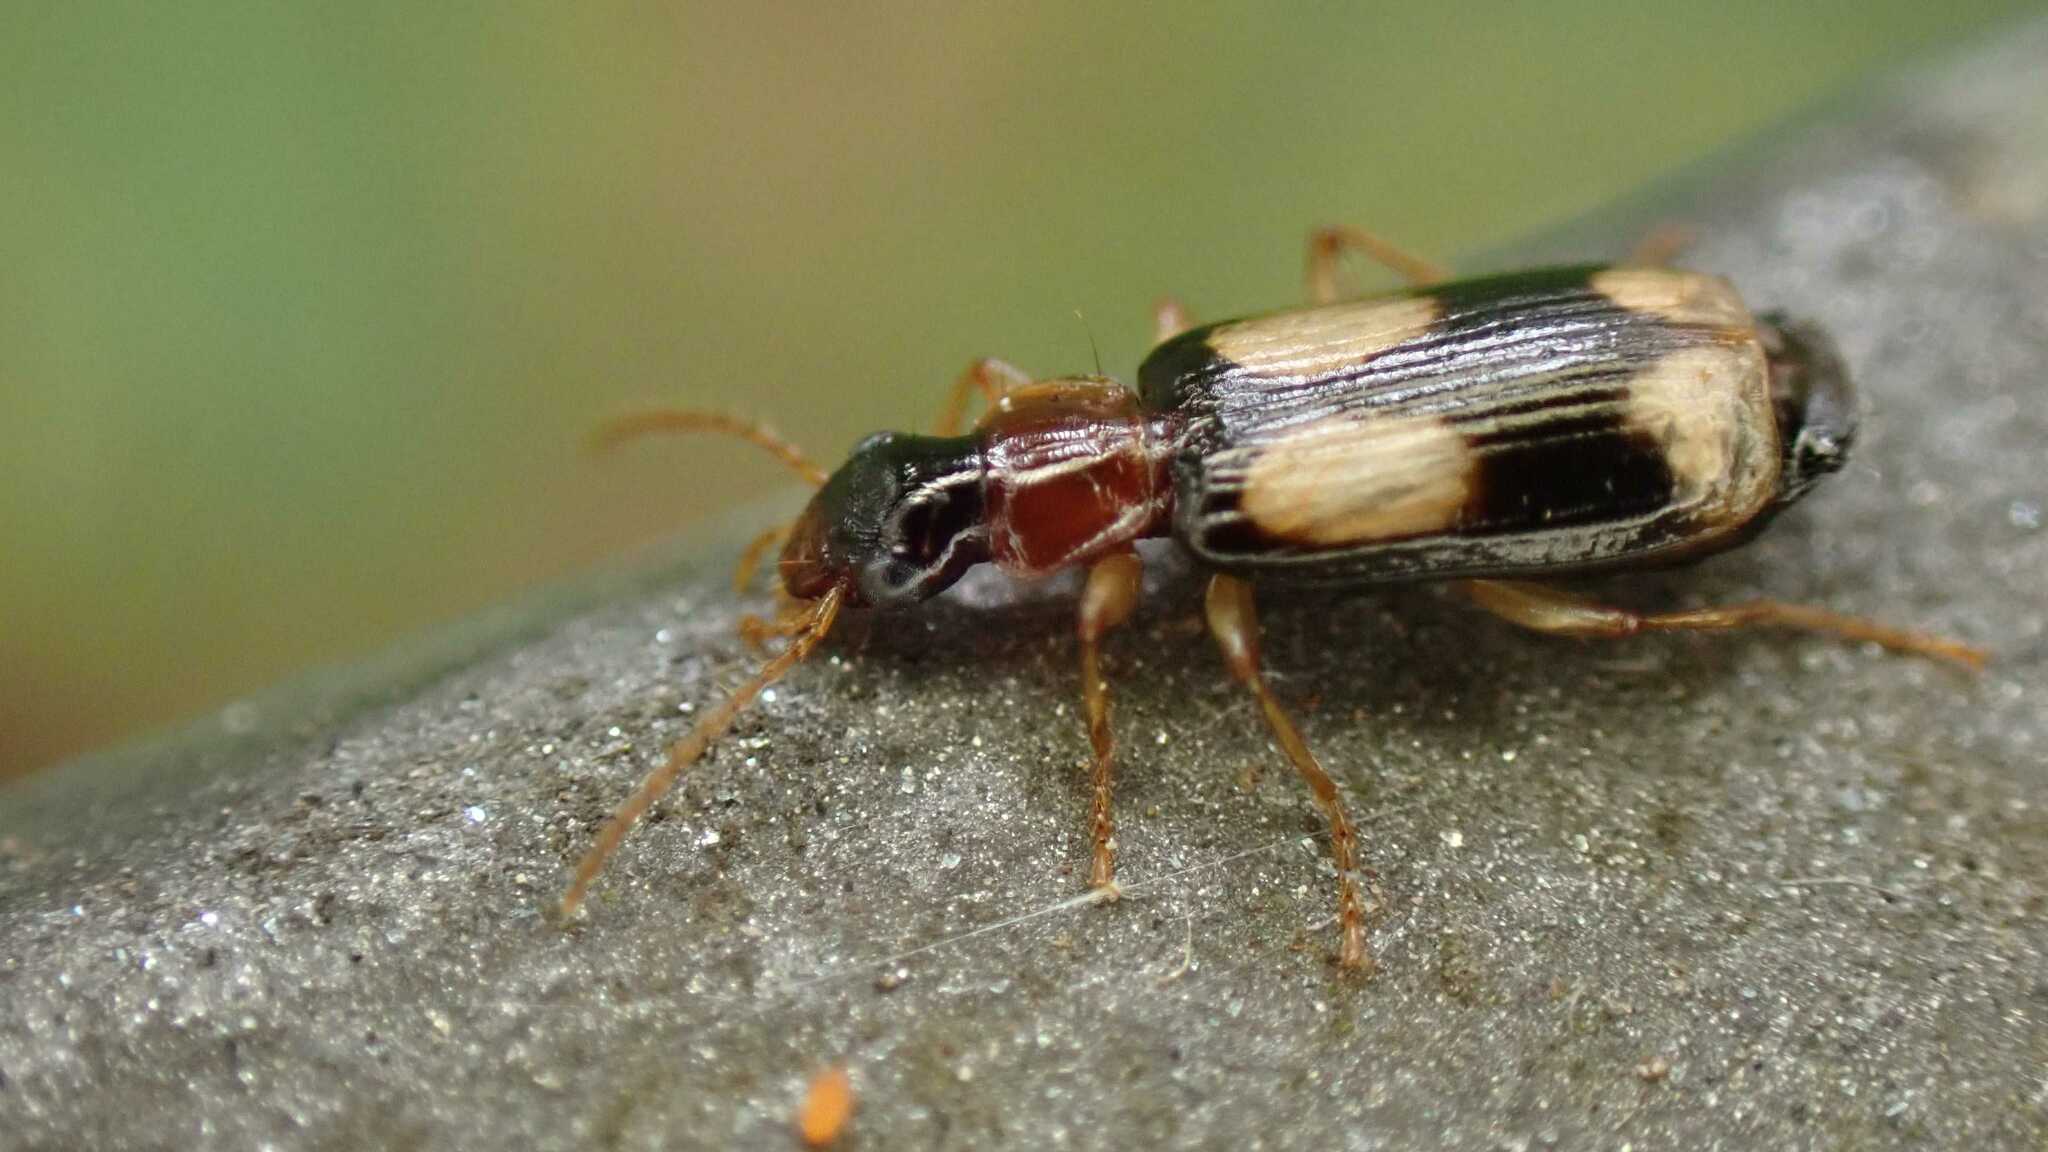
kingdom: Animalia
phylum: Arthropoda
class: Insecta
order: Coleoptera
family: Carabidae
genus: Dromius
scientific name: Dromius quadrimaculatus
